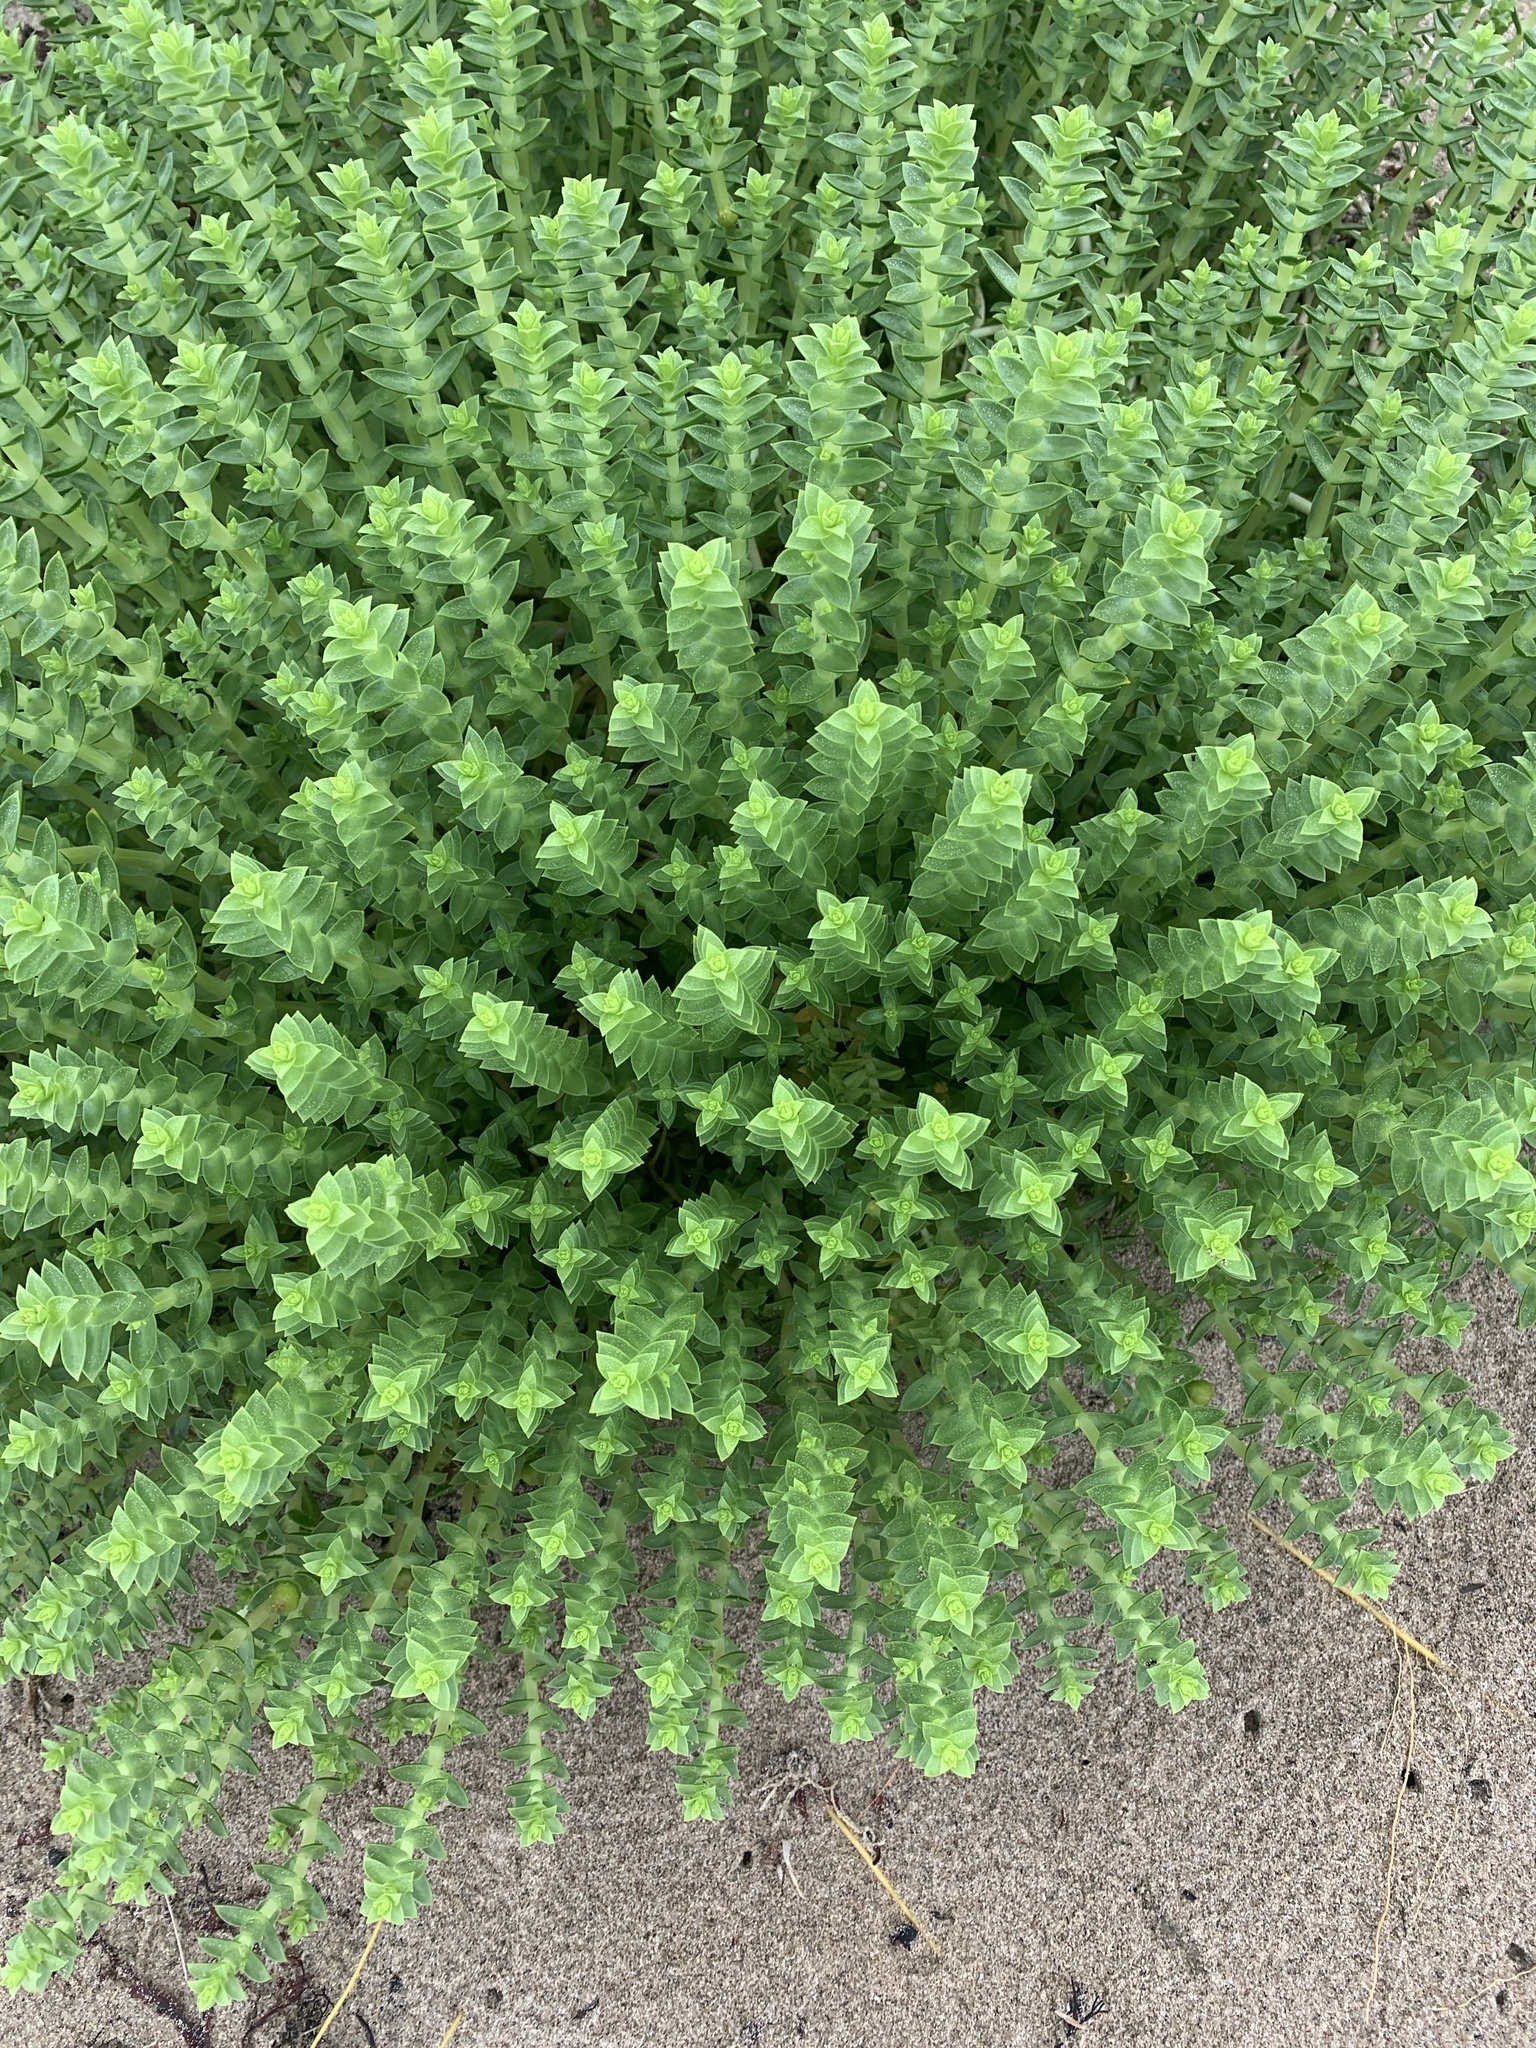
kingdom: Plantae
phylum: Tracheophyta
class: Magnoliopsida
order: Caryophyllales
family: Caryophyllaceae
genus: Honckenya
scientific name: Honckenya peploides
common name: Sea sandwort
